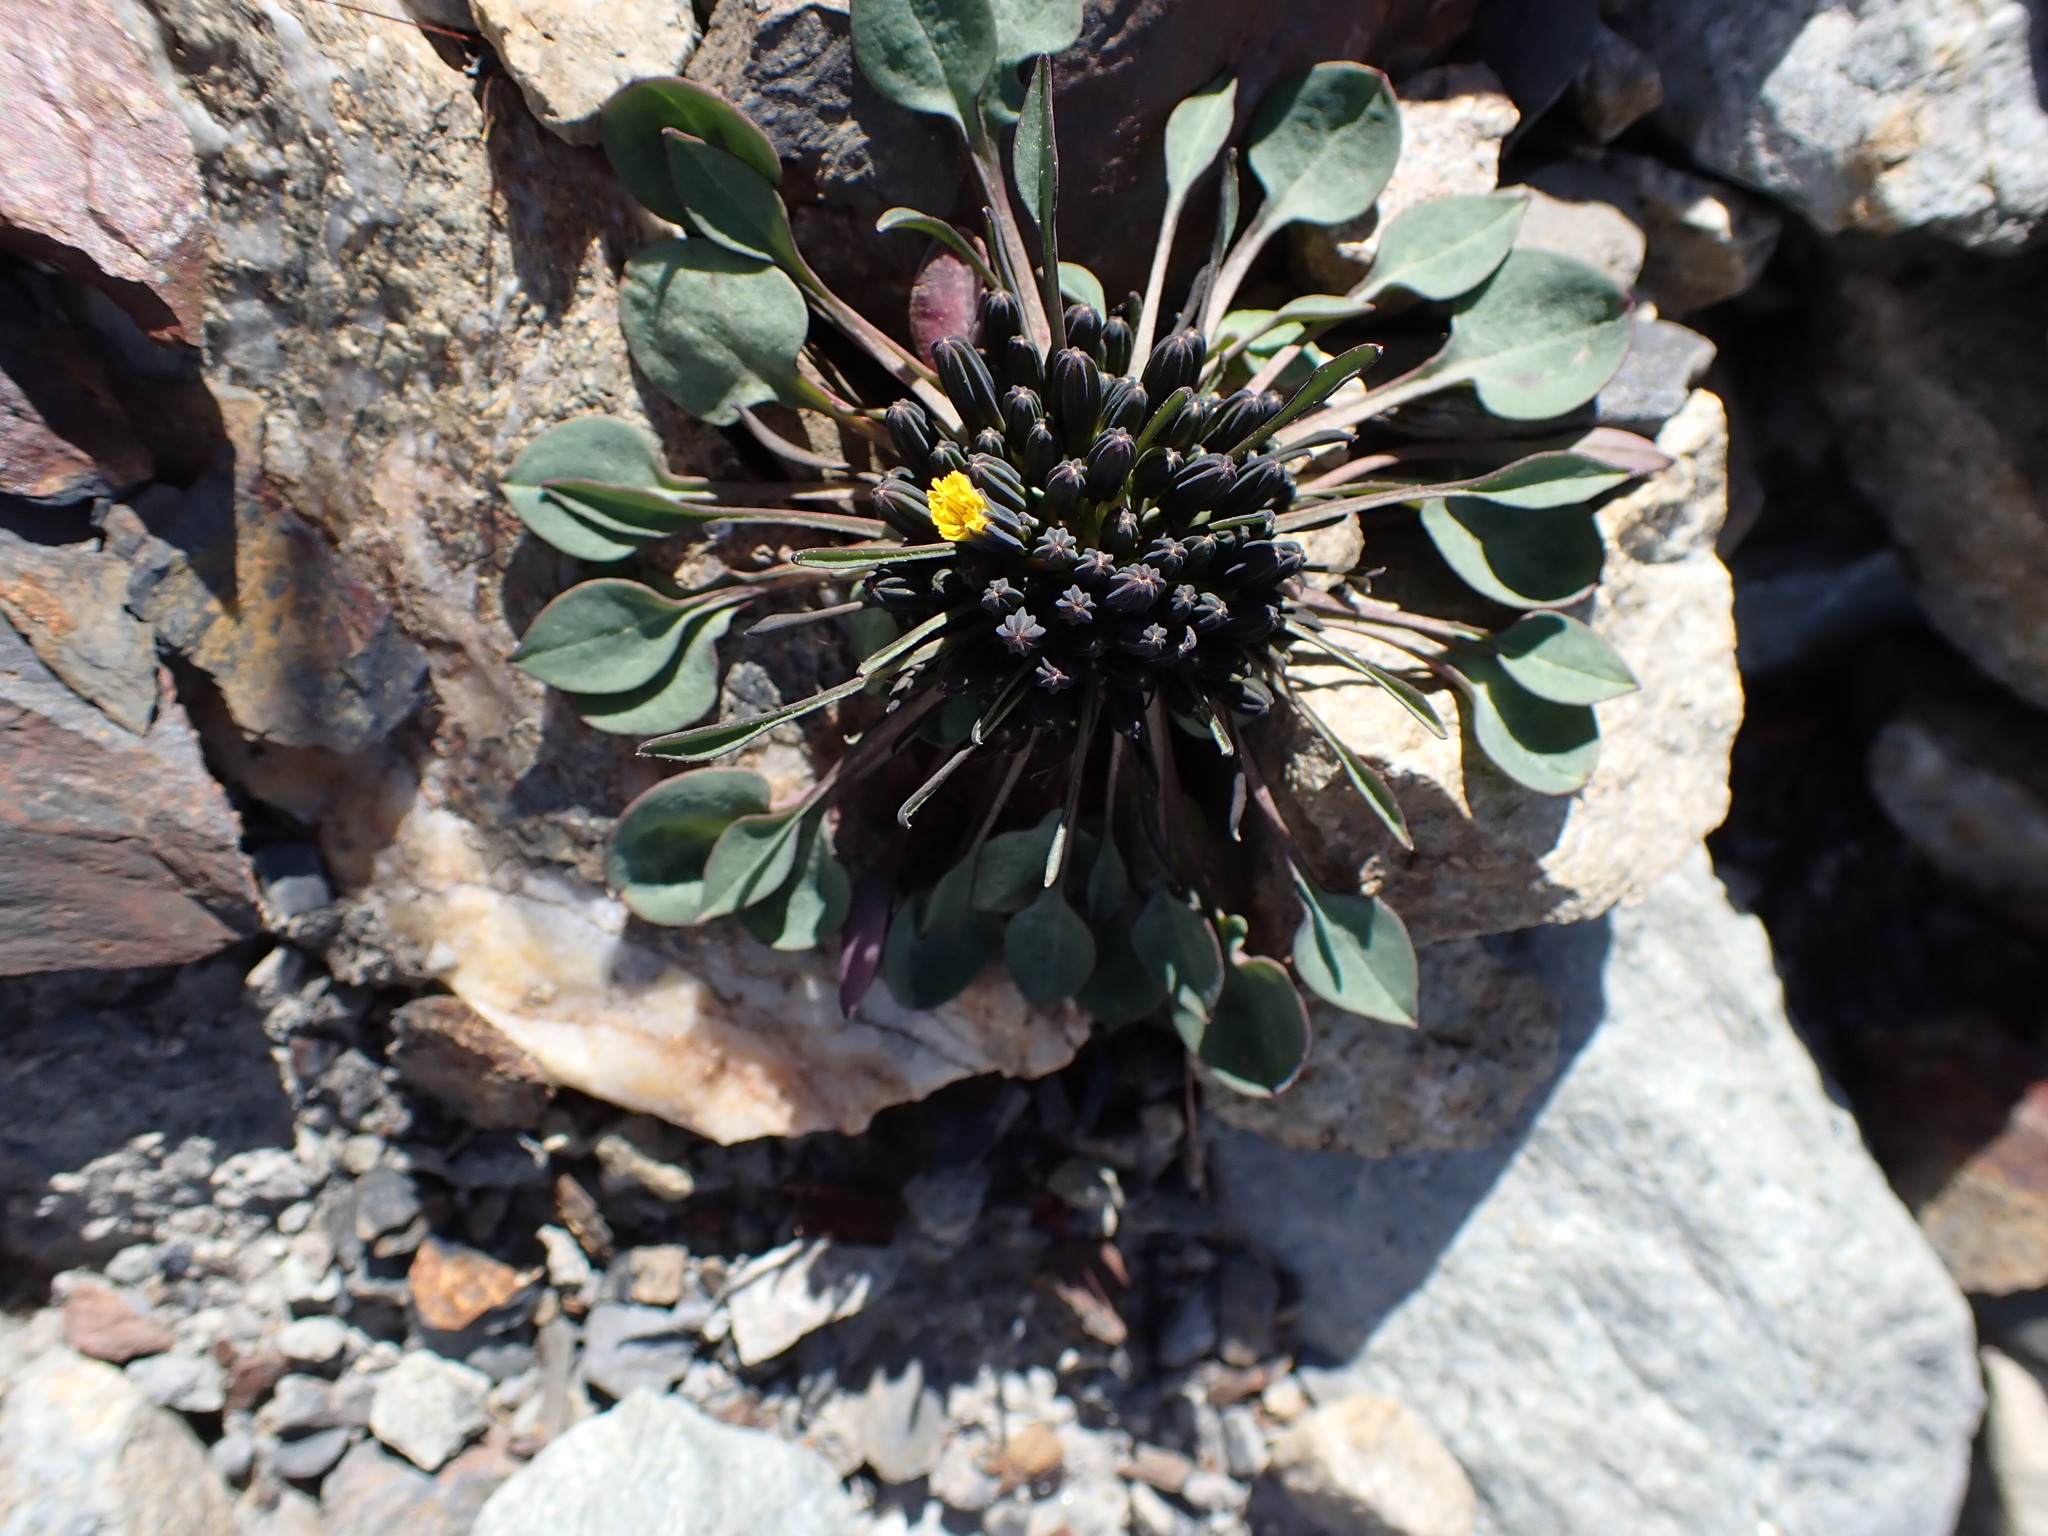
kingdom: Plantae
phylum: Tracheophyta
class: Magnoliopsida
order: Asterales
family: Asteraceae
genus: Askellia
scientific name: Askellia pygmaea
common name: Dwarf alpine hawksbeard
